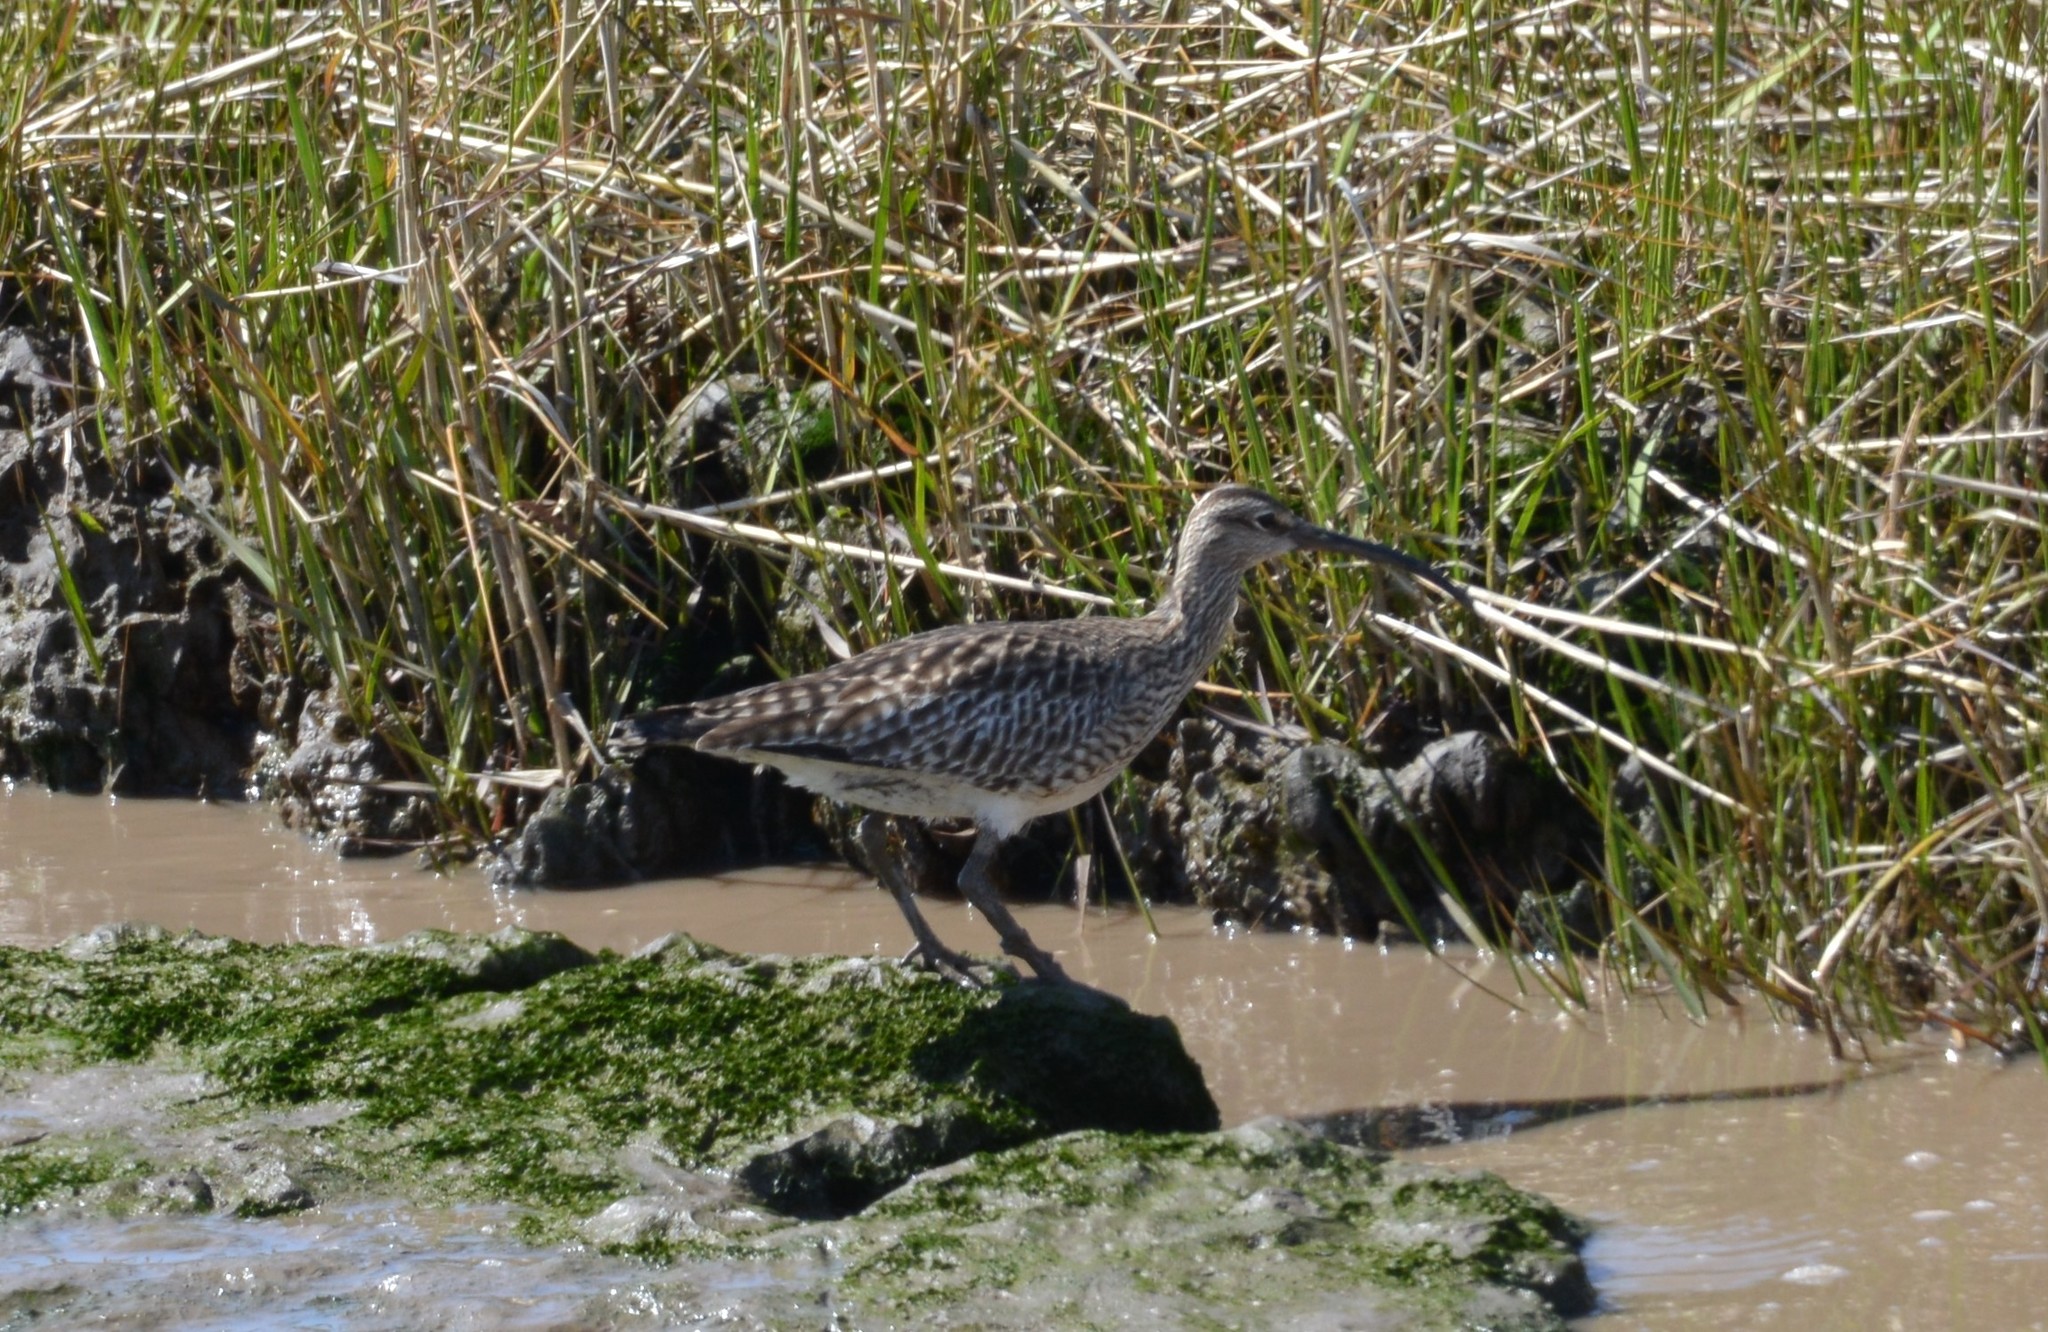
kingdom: Animalia
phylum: Chordata
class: Aves
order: Charadriiformes
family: Scolopacidae
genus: Numenius
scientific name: Numenius phaeopus
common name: Whimbrel
